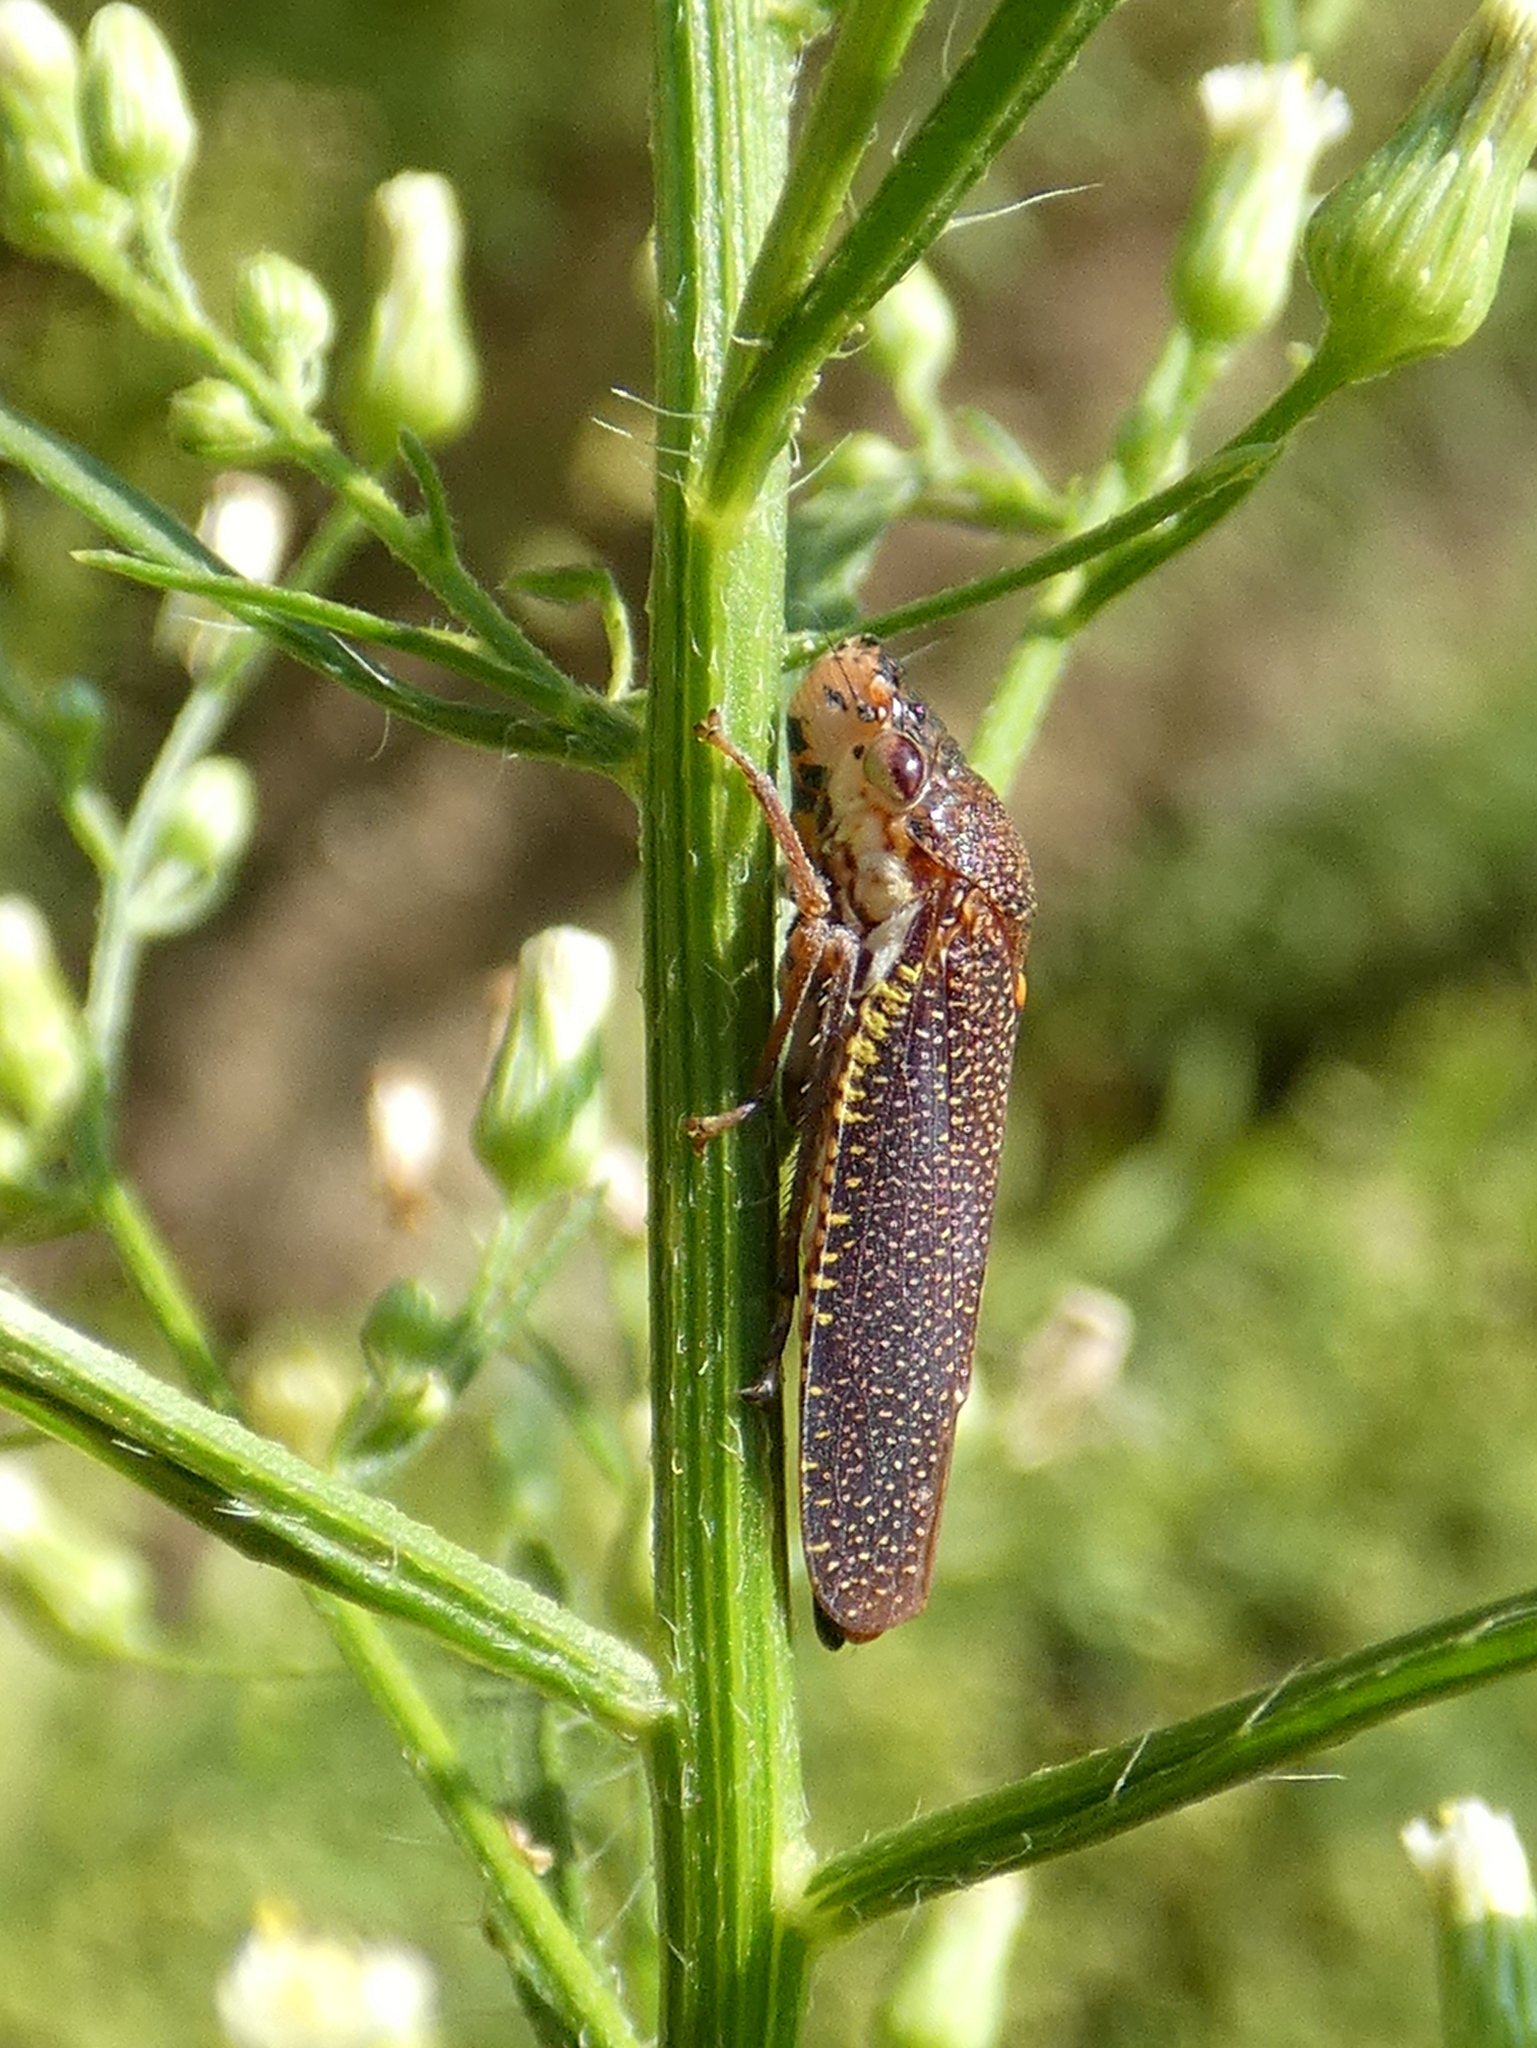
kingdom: Animalia
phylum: Arthropoda
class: Insecta
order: Hemiptera
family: Cicadellidae
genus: Paraulacizes
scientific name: Paraulacizes irrorata
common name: Speckled sharpshooter
